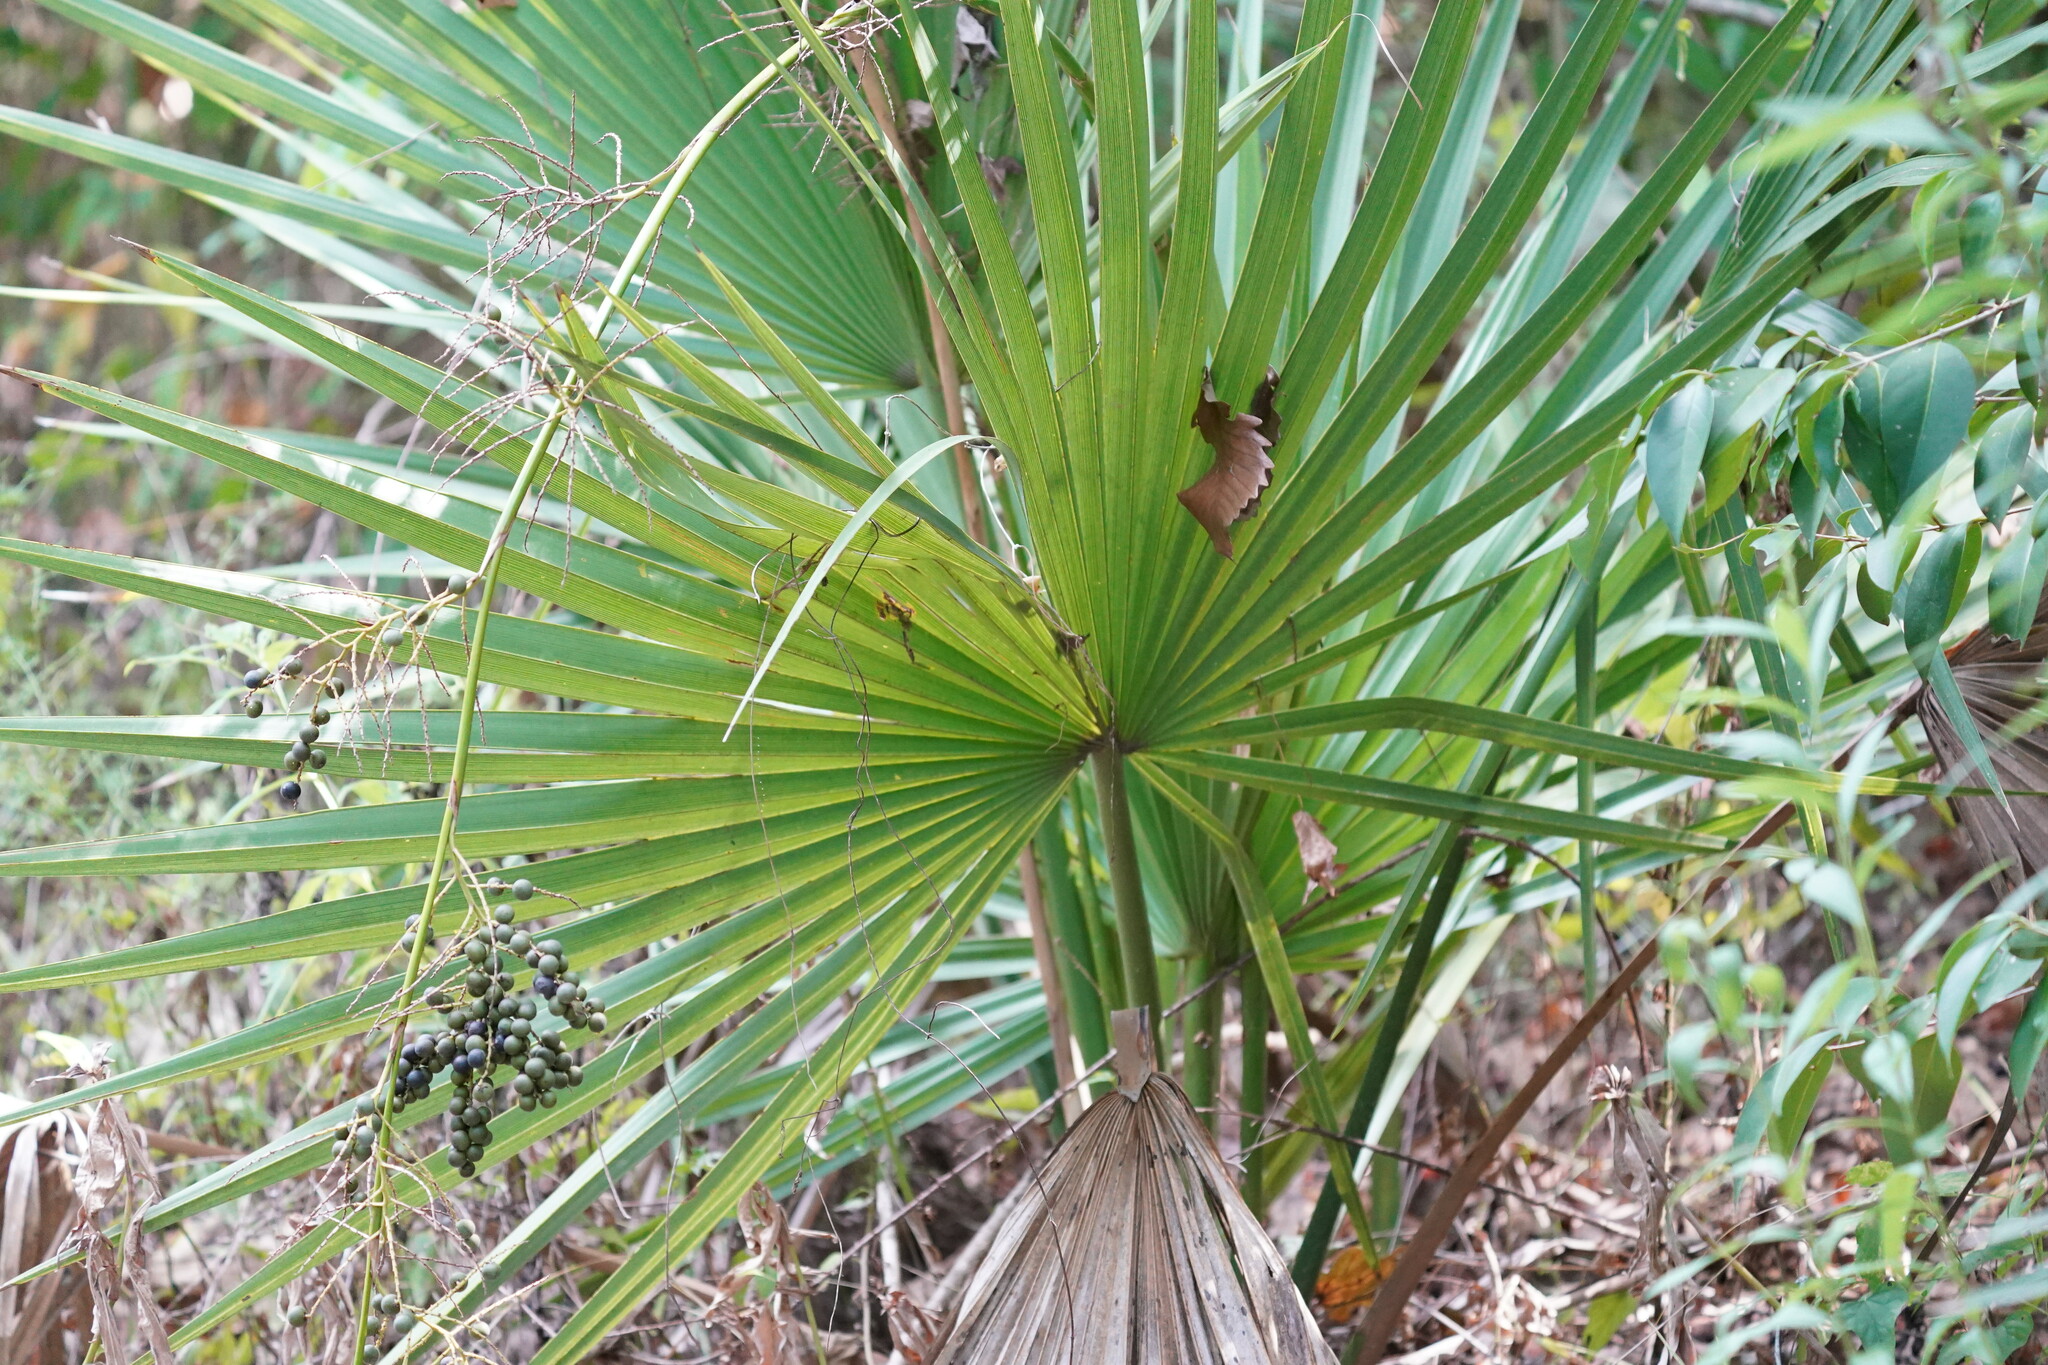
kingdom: Plantae
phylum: Tracheophyta
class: Liliopsida
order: Arecales
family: Arecaceae
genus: Sabal
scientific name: Sabal minor
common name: Dwarf palmetto
